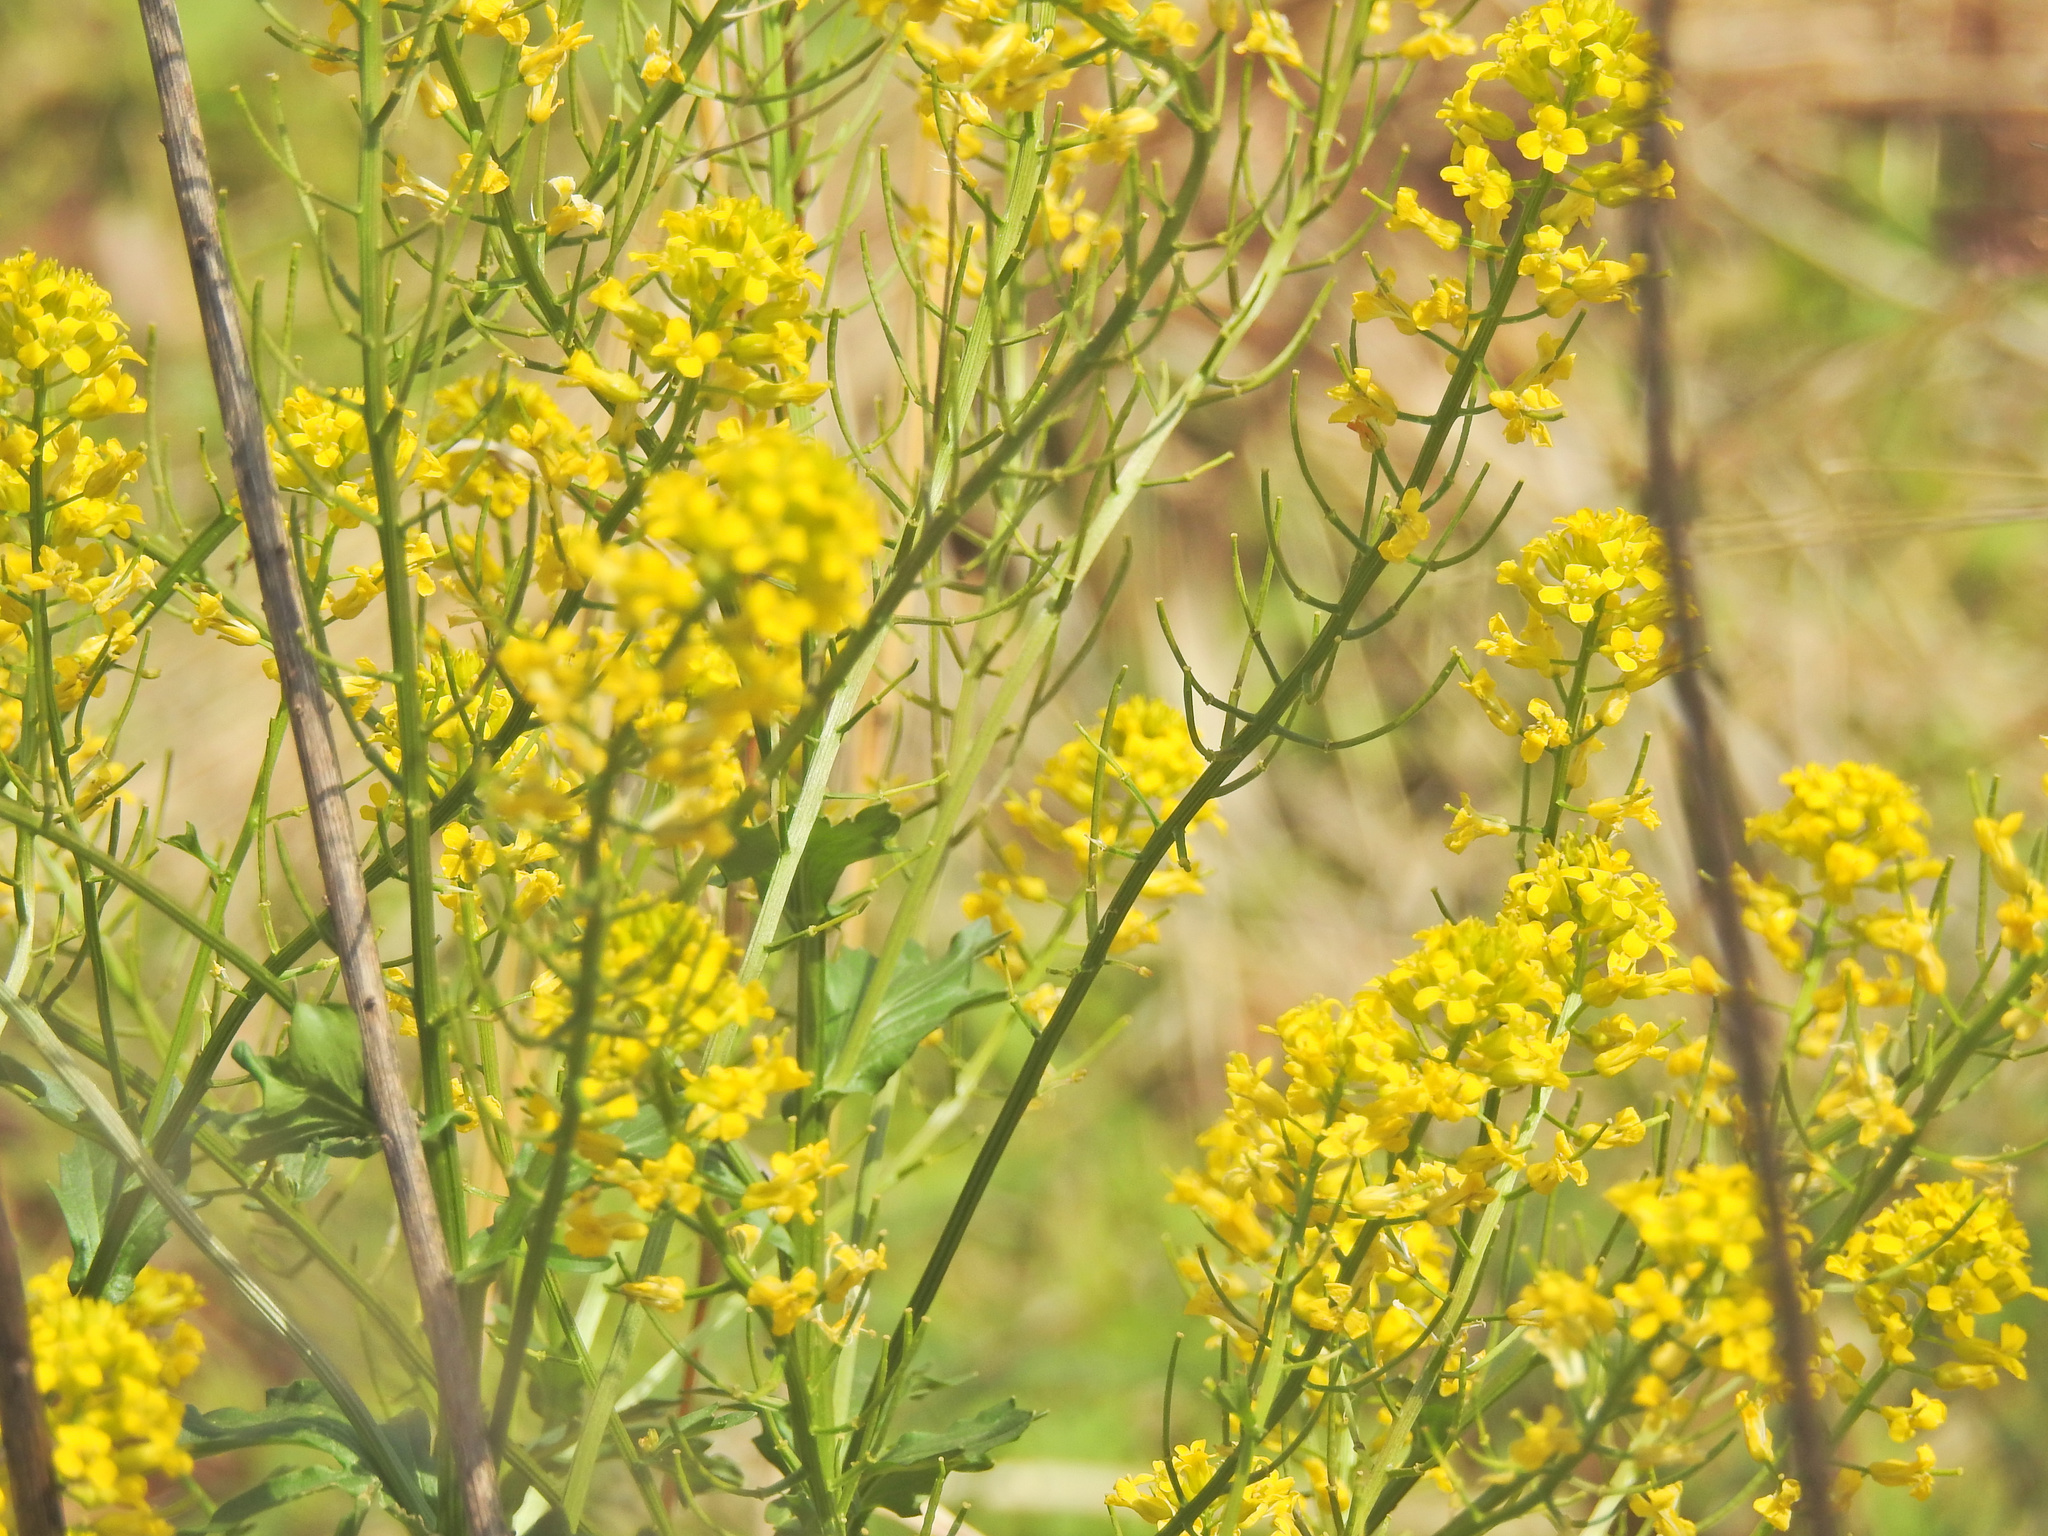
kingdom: Plantae
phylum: Tracheophyta
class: Magnoliopsida
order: Brassicales
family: Brassicaceae
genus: Barbarea
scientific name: Barbarea vulgaris
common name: Cressy-greens
